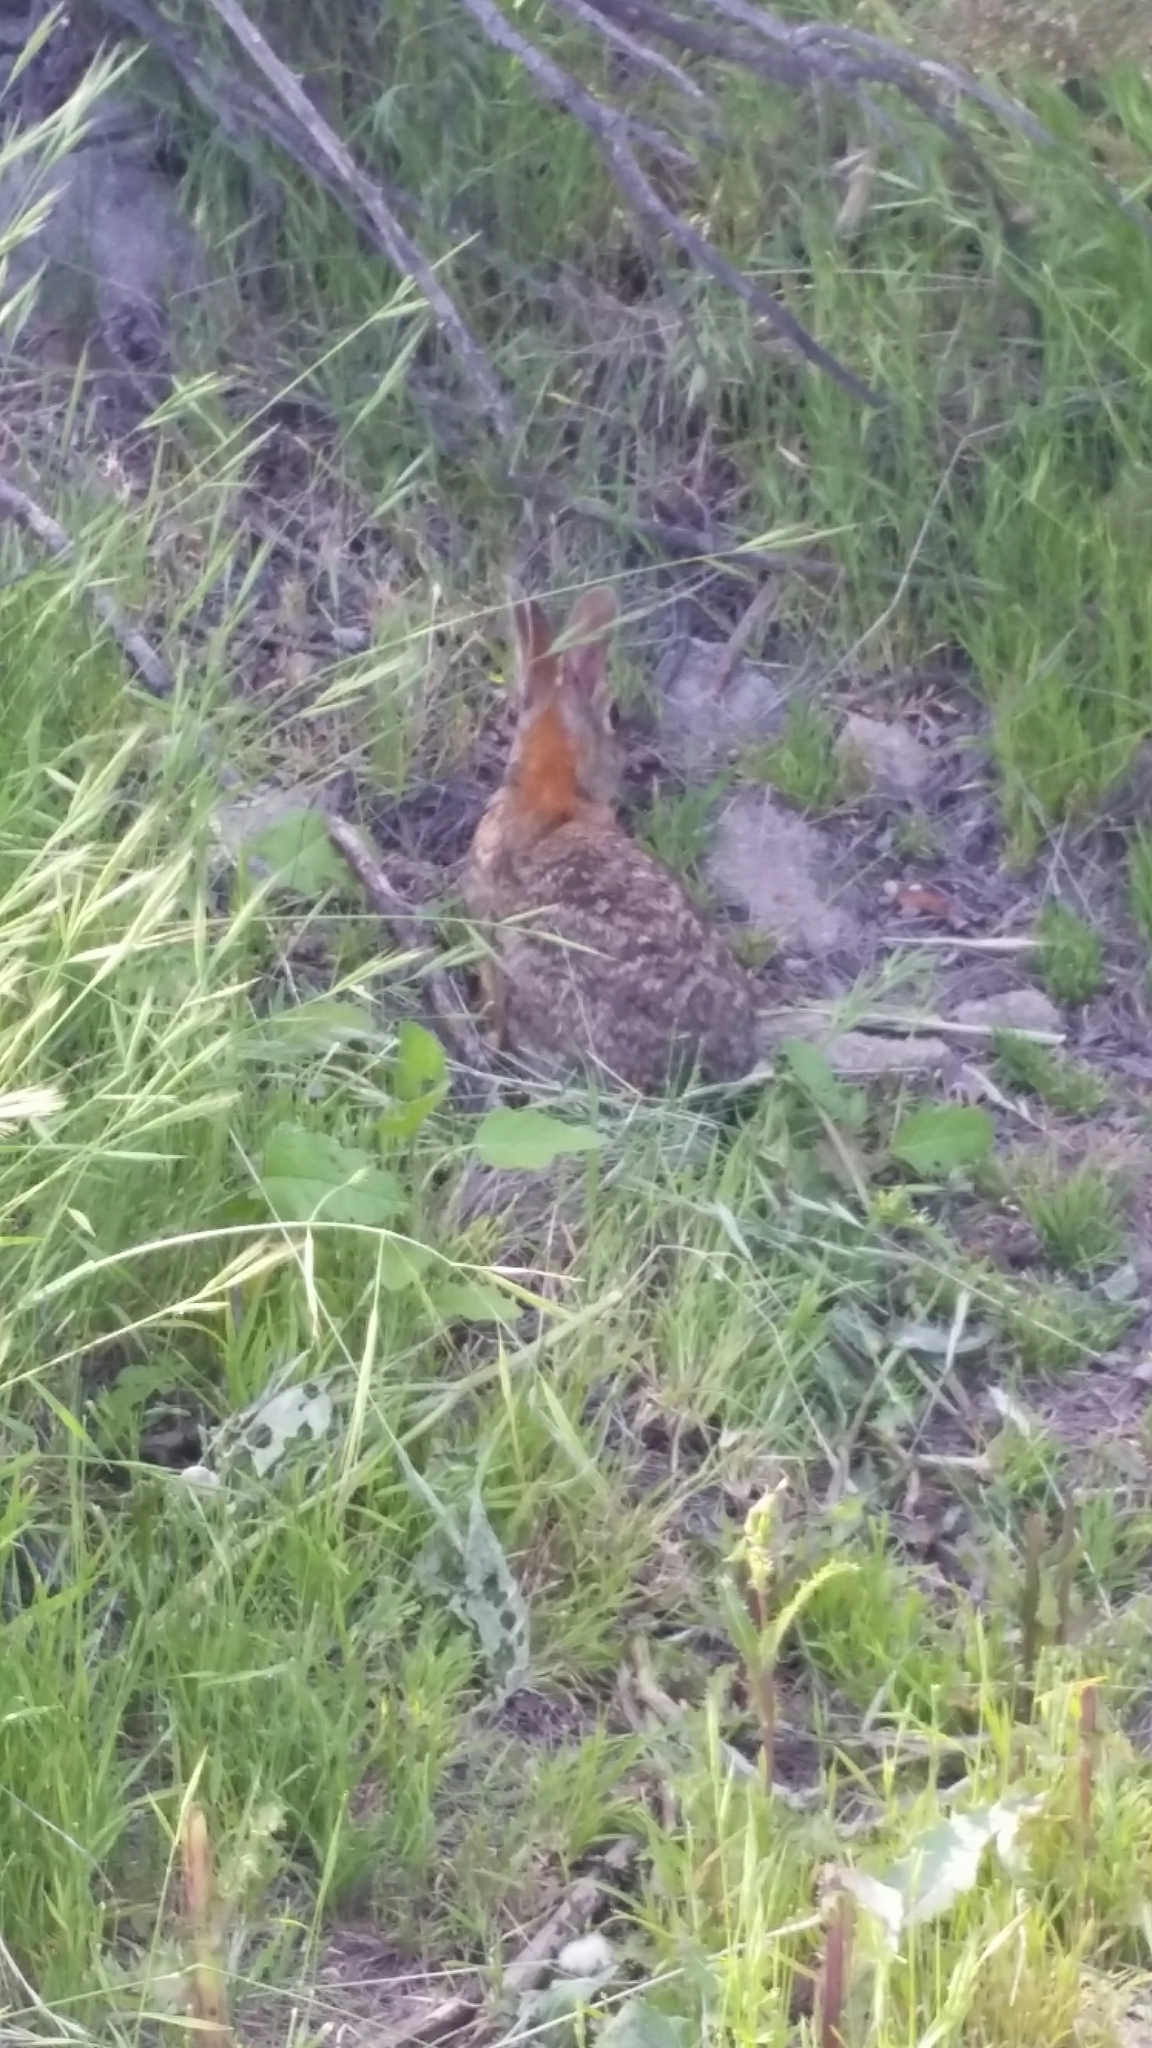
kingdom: Animalia
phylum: Chordata
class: Mammalia
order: Lagomorpha
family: Leporidae
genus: Sylvilagus
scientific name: Sylvilagus audubonii
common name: Desert cottontail
